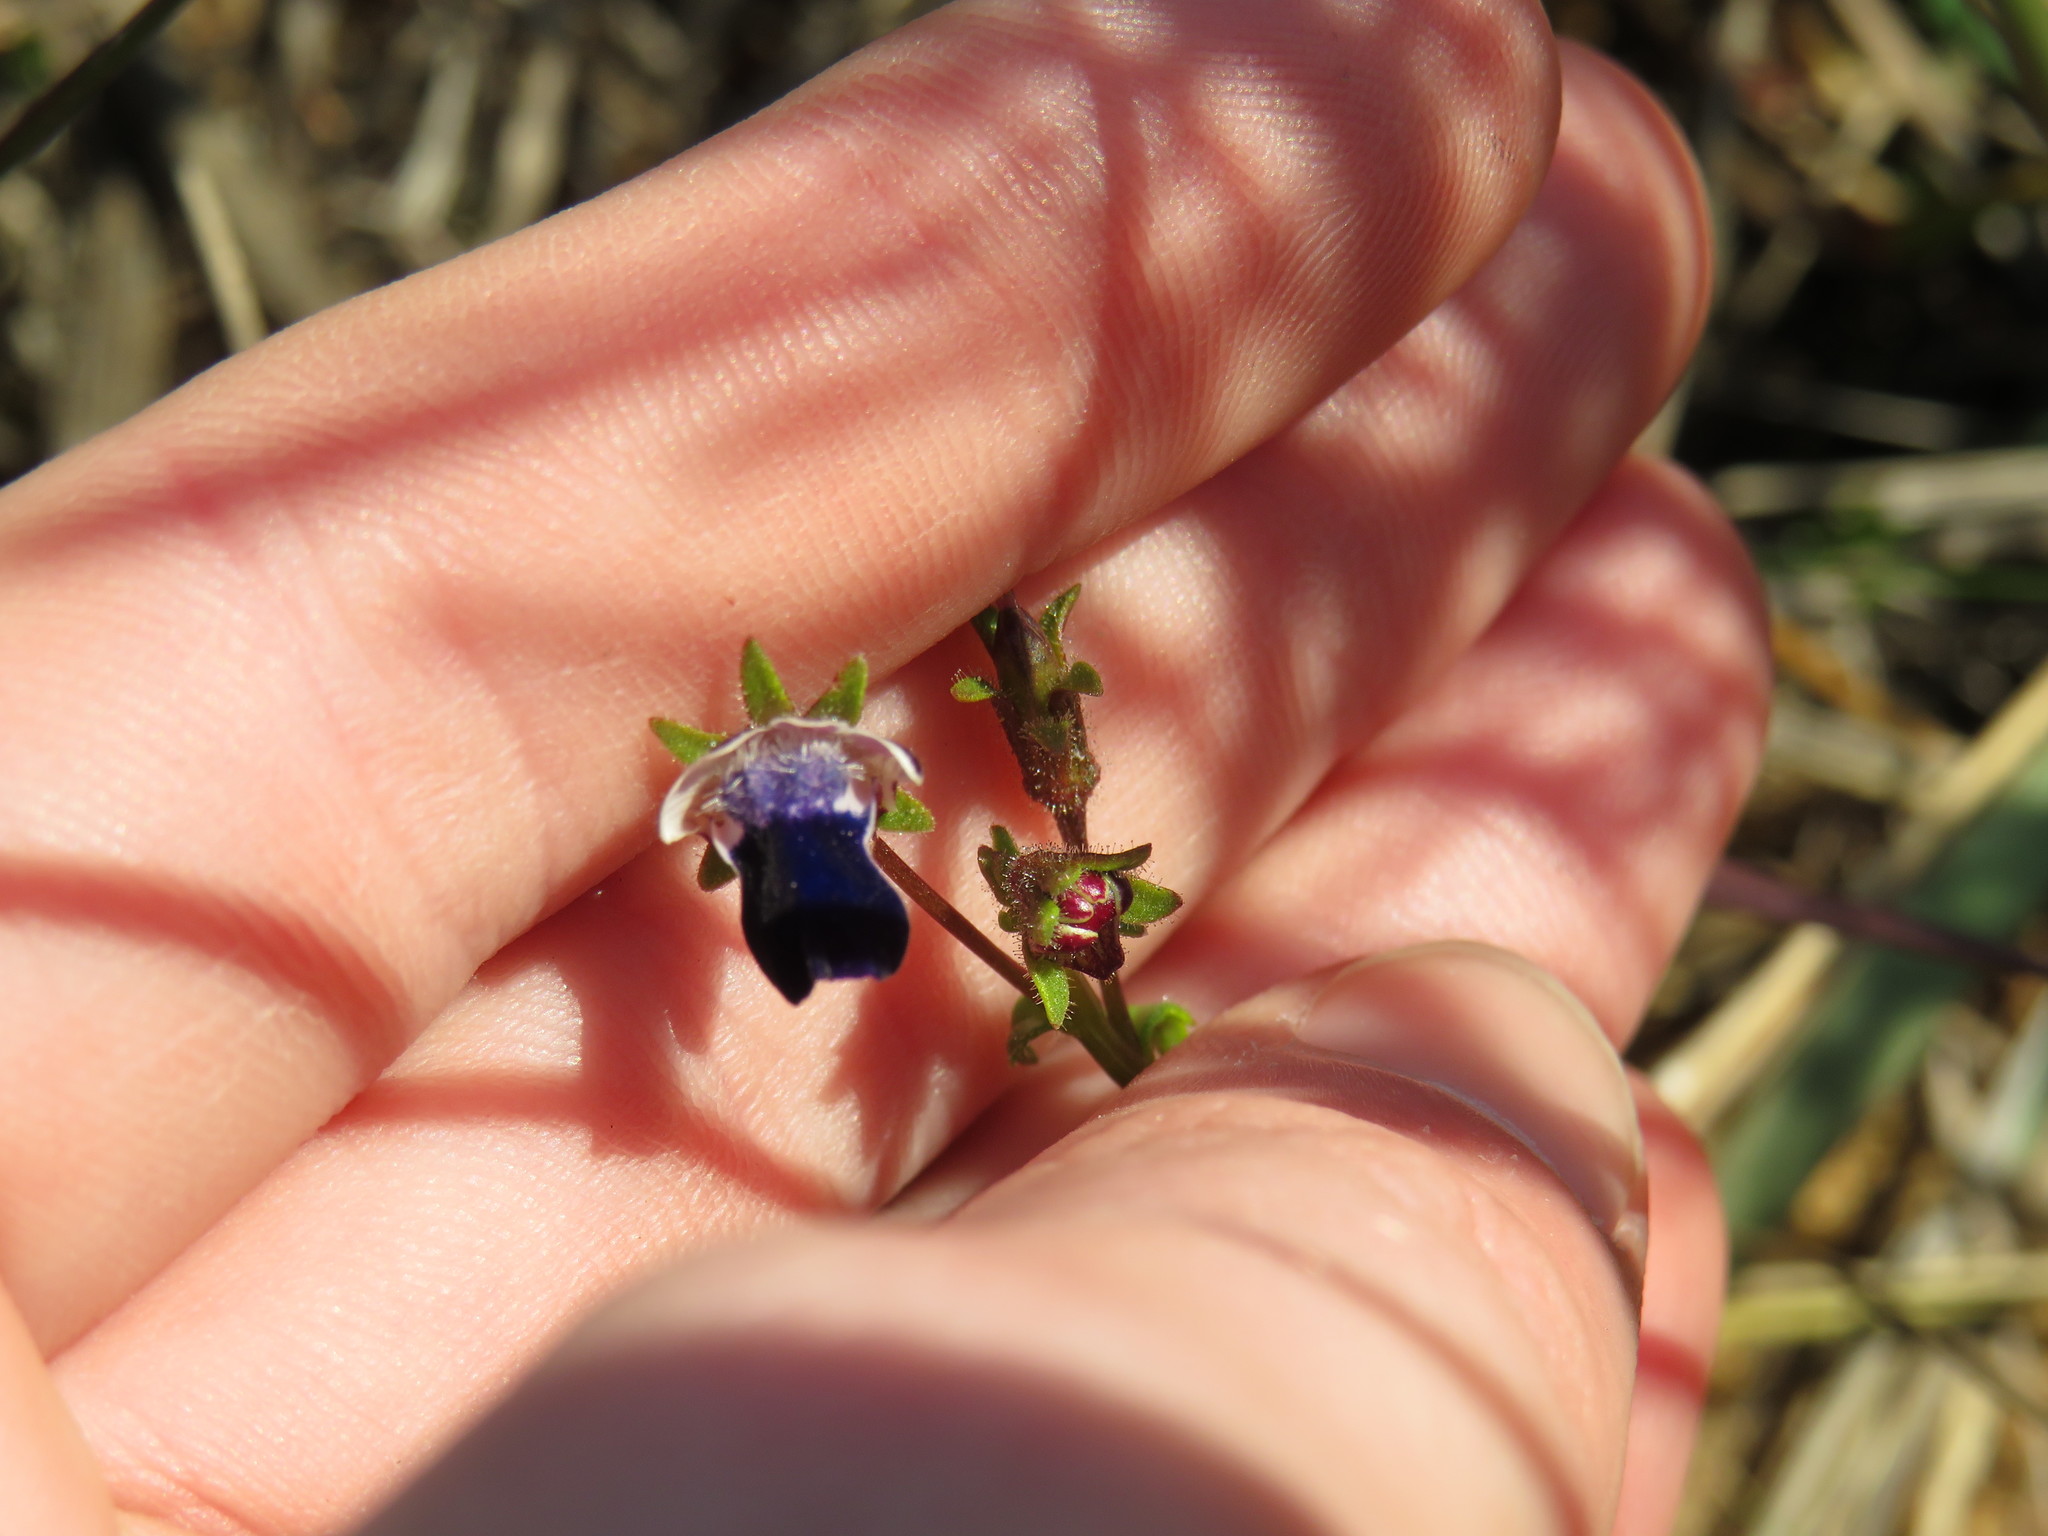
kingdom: Plantae
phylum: Tracheophyta
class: Magnoliopsida
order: Lamiales
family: Scrophulariaceae
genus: Nemesia
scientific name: Nemesia barbata
